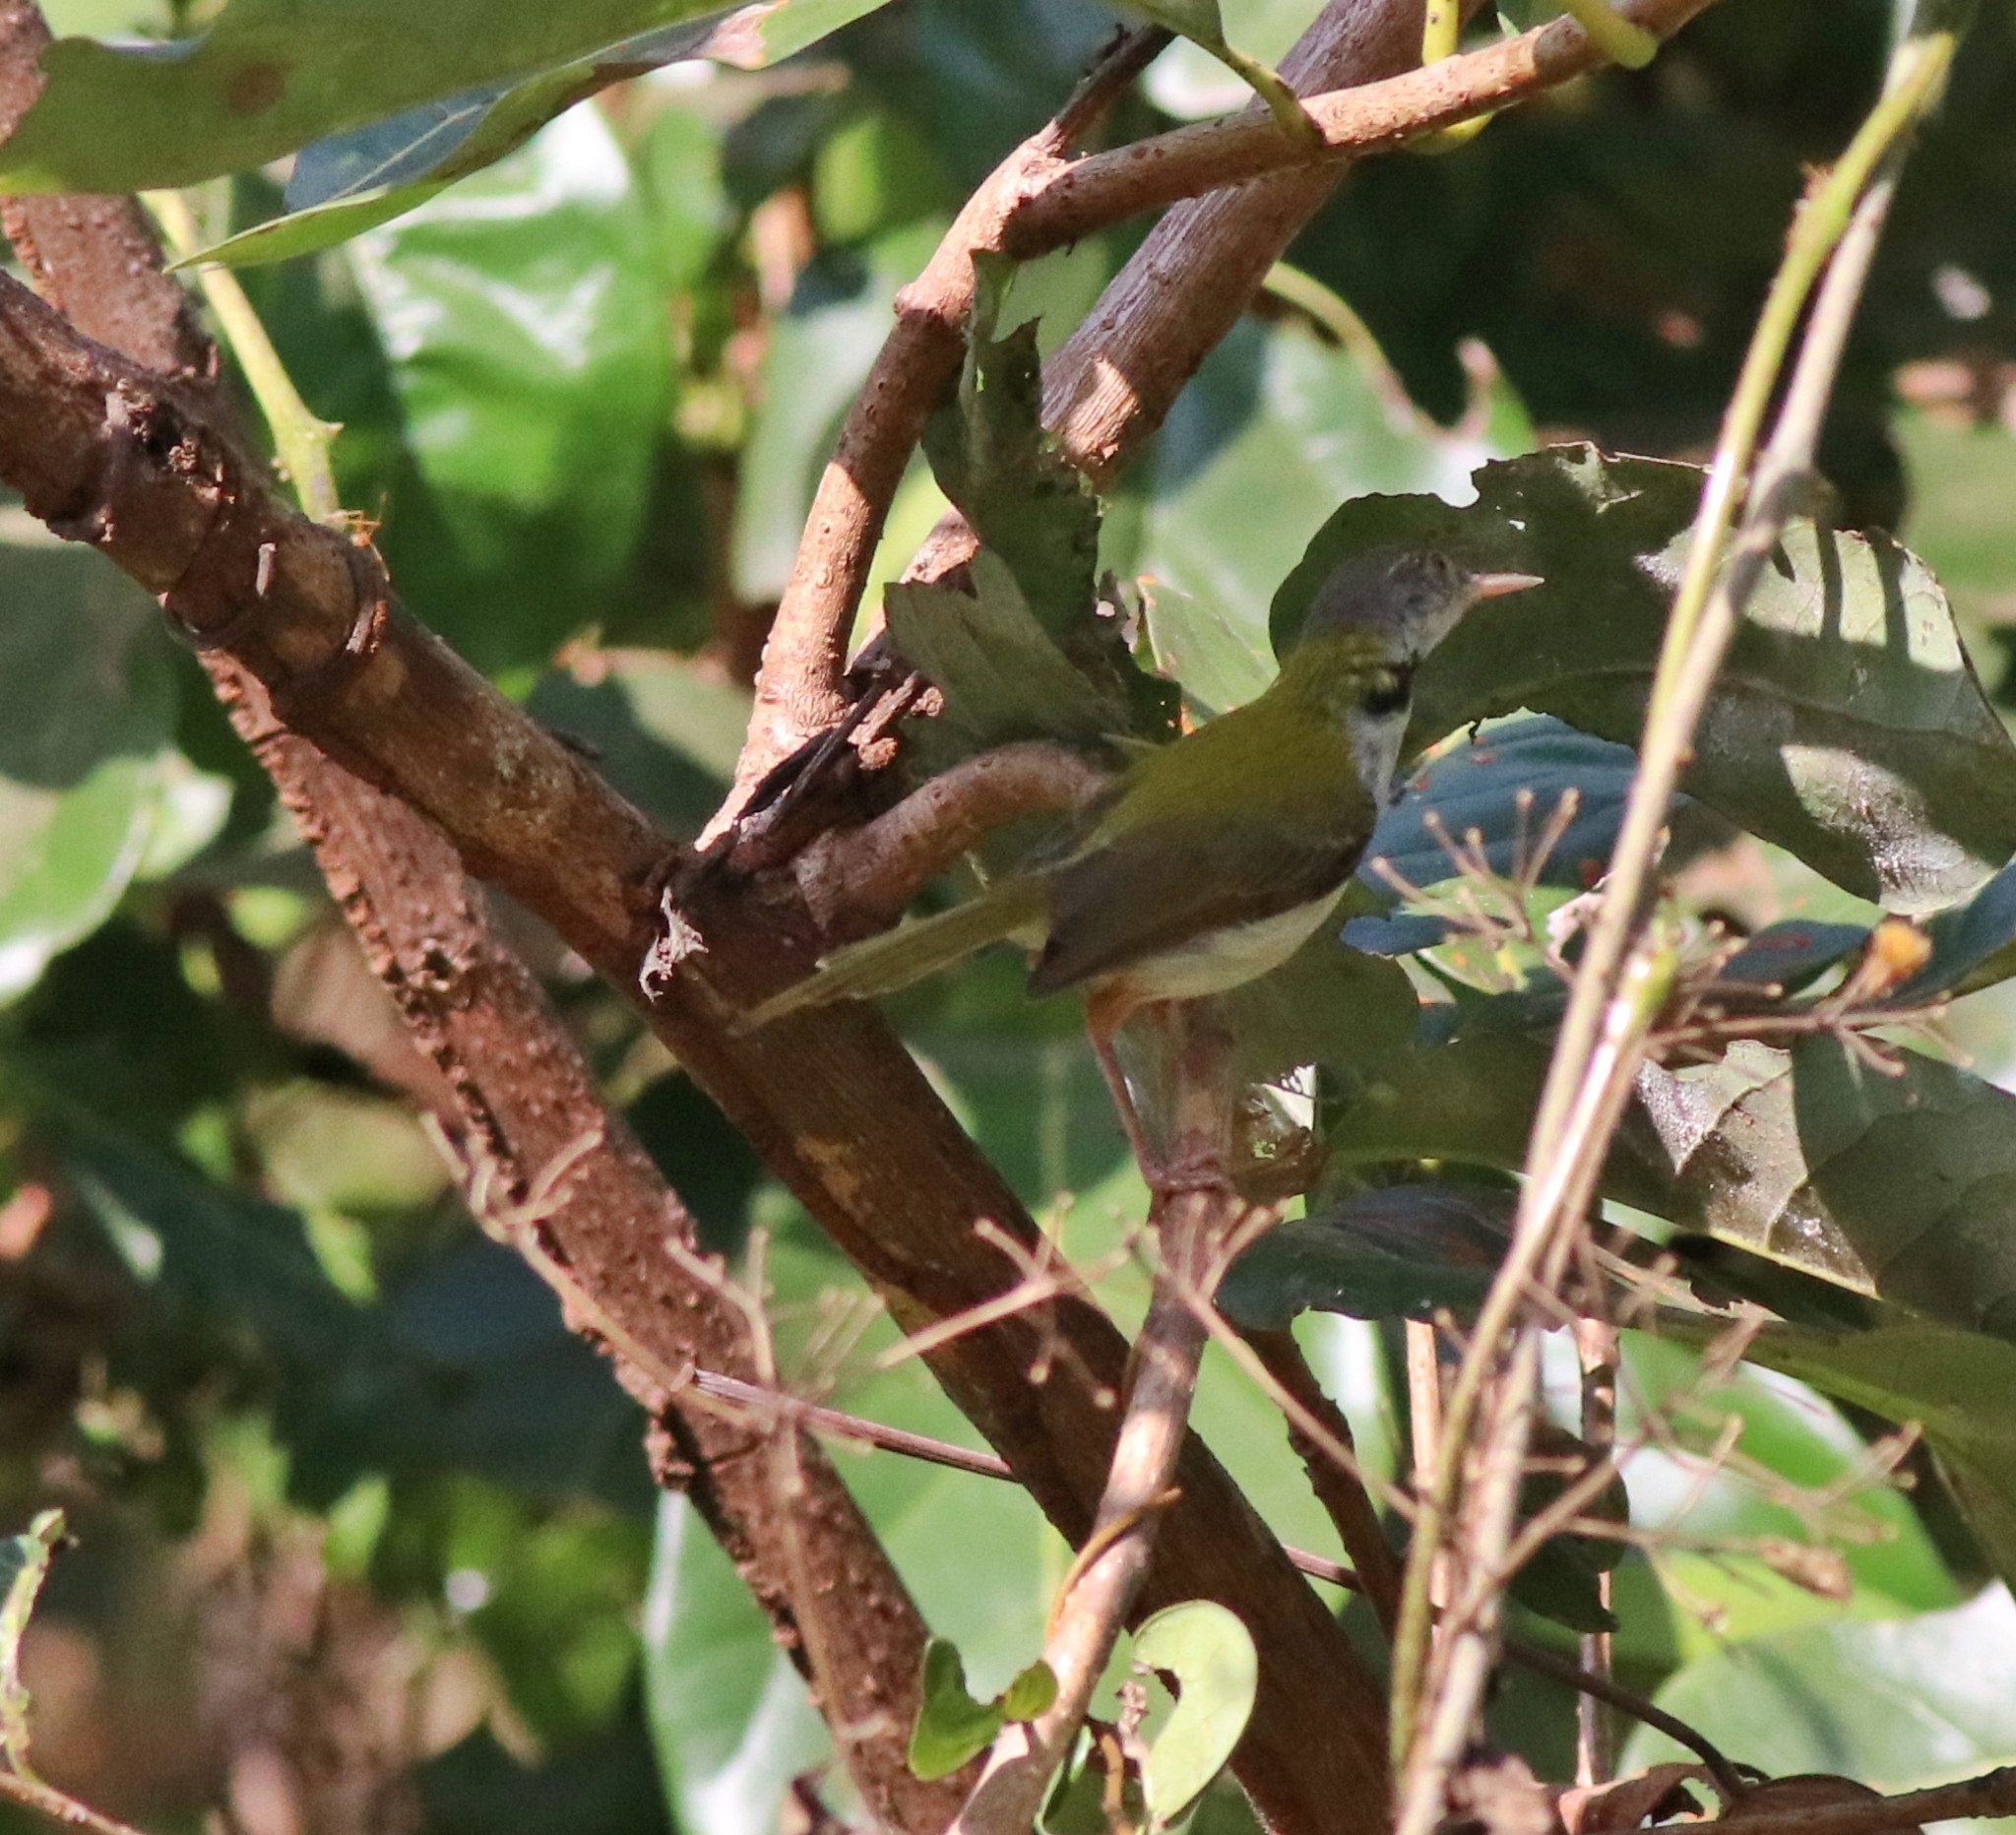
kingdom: Animalia
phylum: Chordata
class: Aves
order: Passeriformes
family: Cisticolidae
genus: Orthotomus
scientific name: Orthotomus sutorius
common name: Common tailorbird
